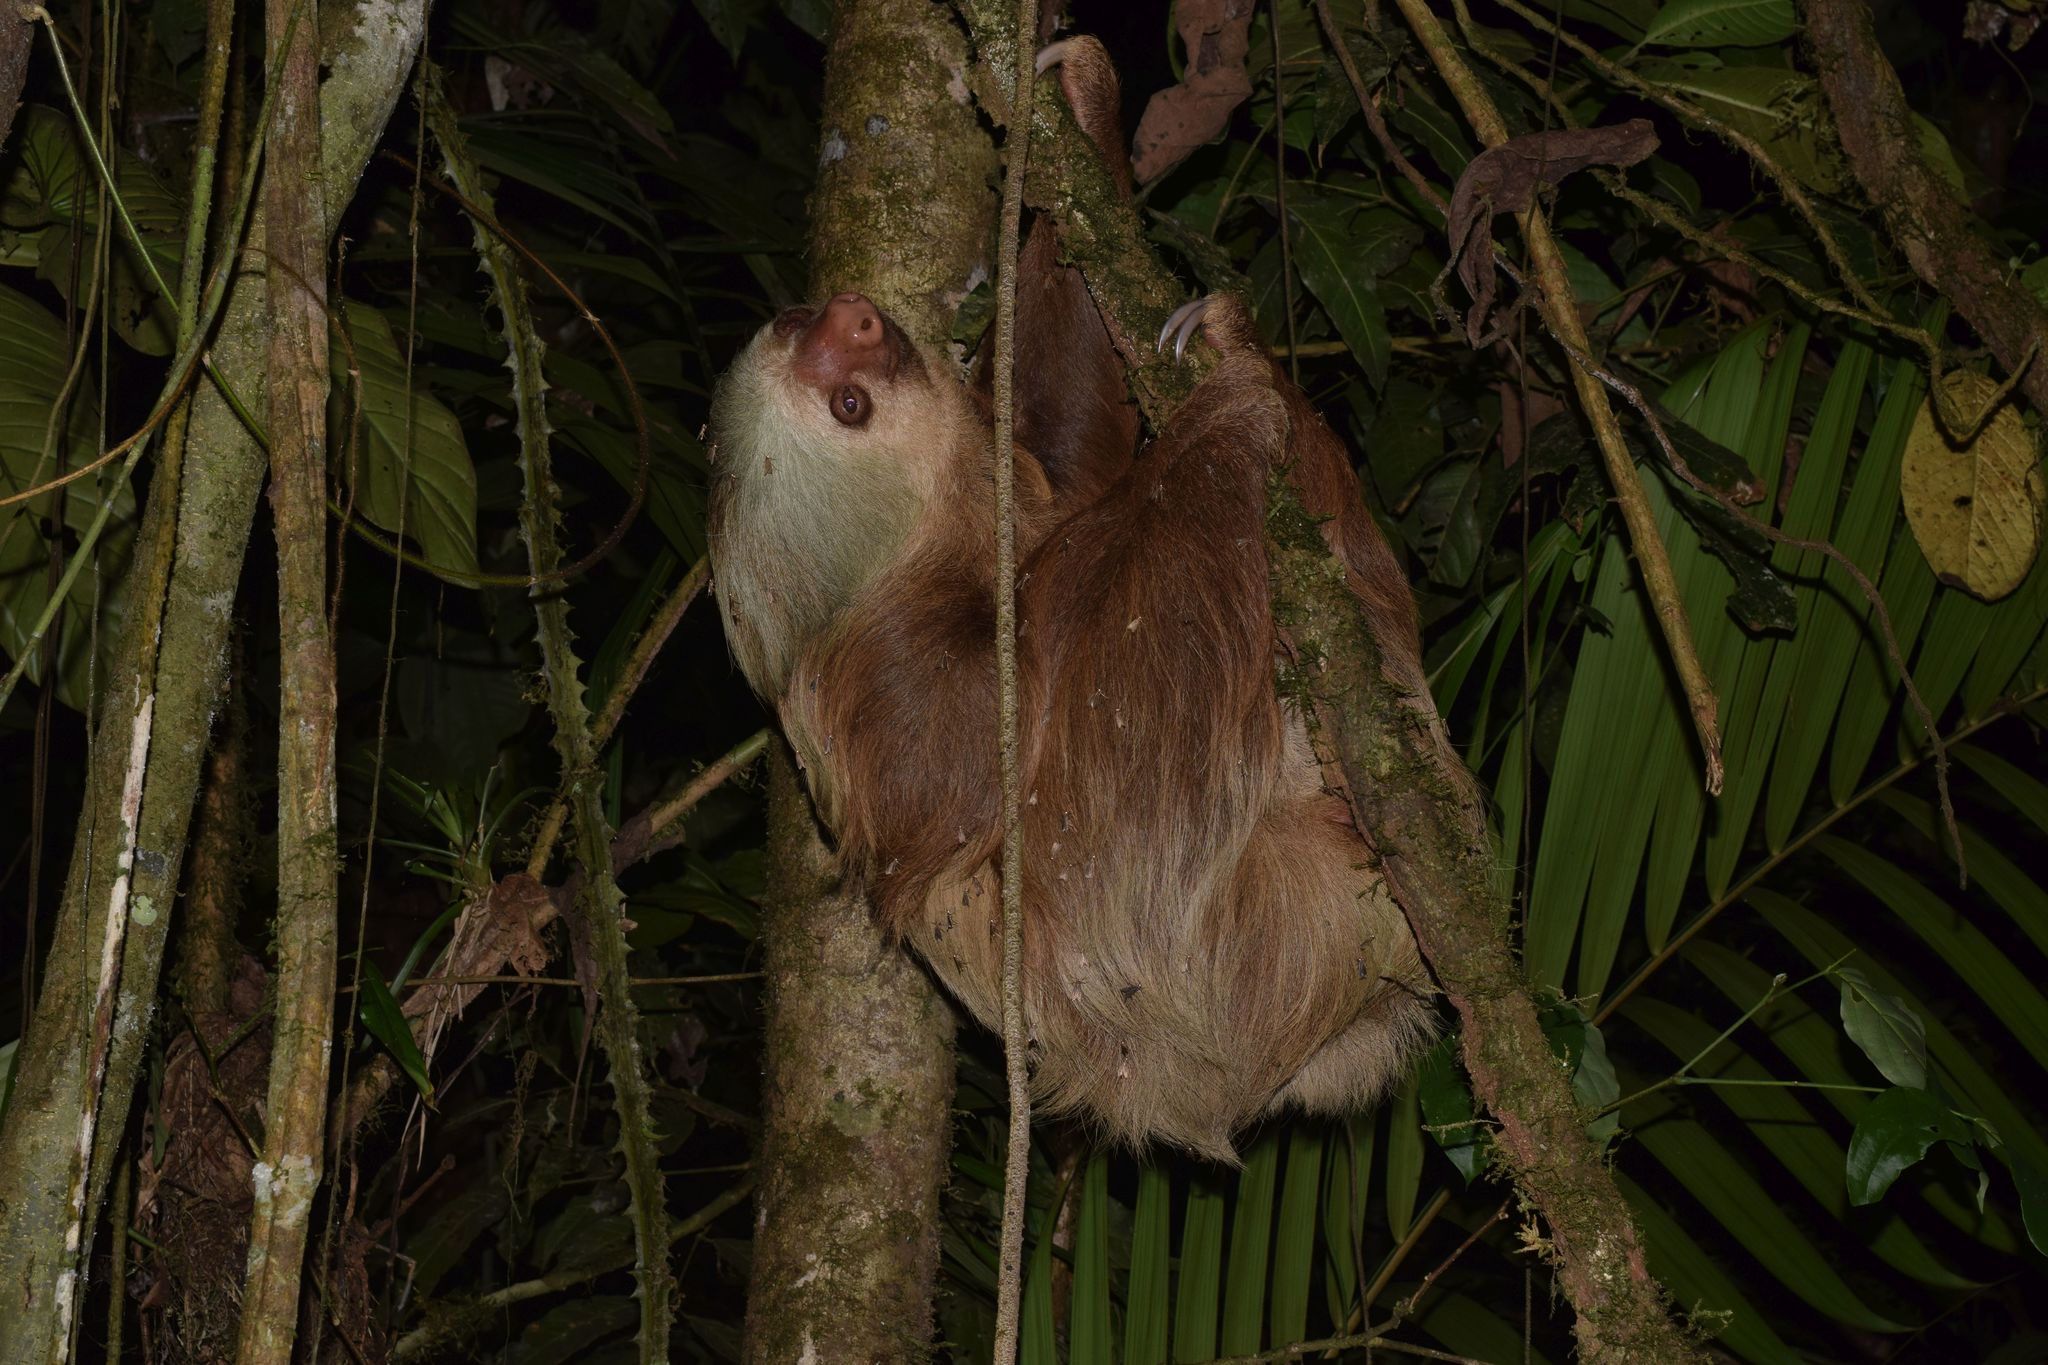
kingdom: Animalia
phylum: Chordata
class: Mammalia
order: Pilosa
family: Megalonychidae
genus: Choloepus
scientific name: Choloepus hoffmanni
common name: Hoffmann's two-toed sloth
